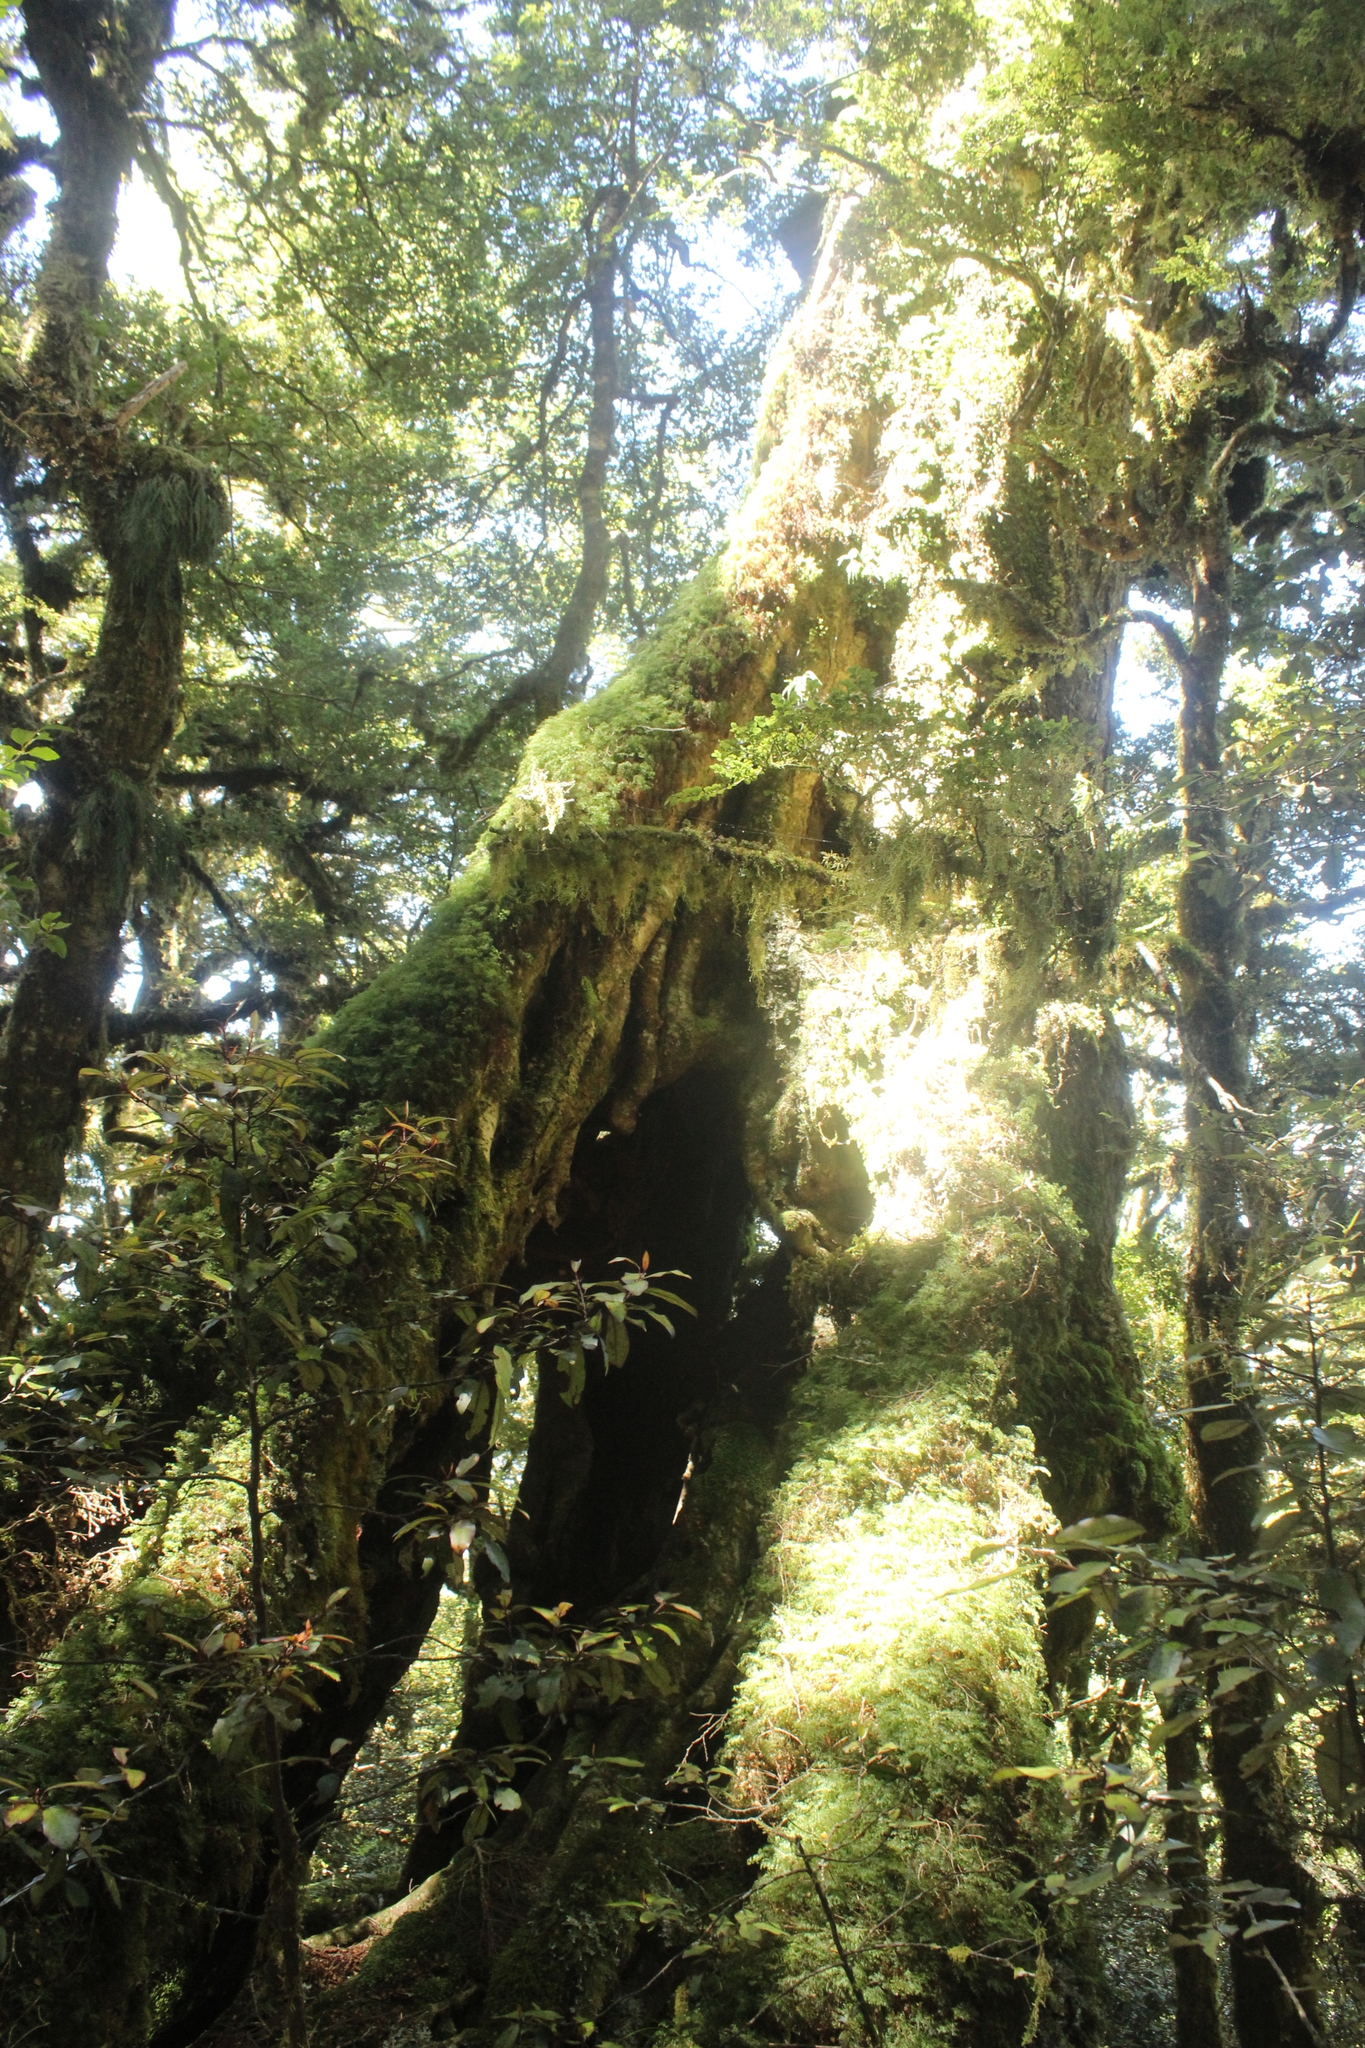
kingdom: Plantae
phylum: Tracheophyta
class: Magnoliopsida
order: Fagales
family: Nothofagaceae
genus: Nothofagus
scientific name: Nothofagus menziesii
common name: Silver beech
